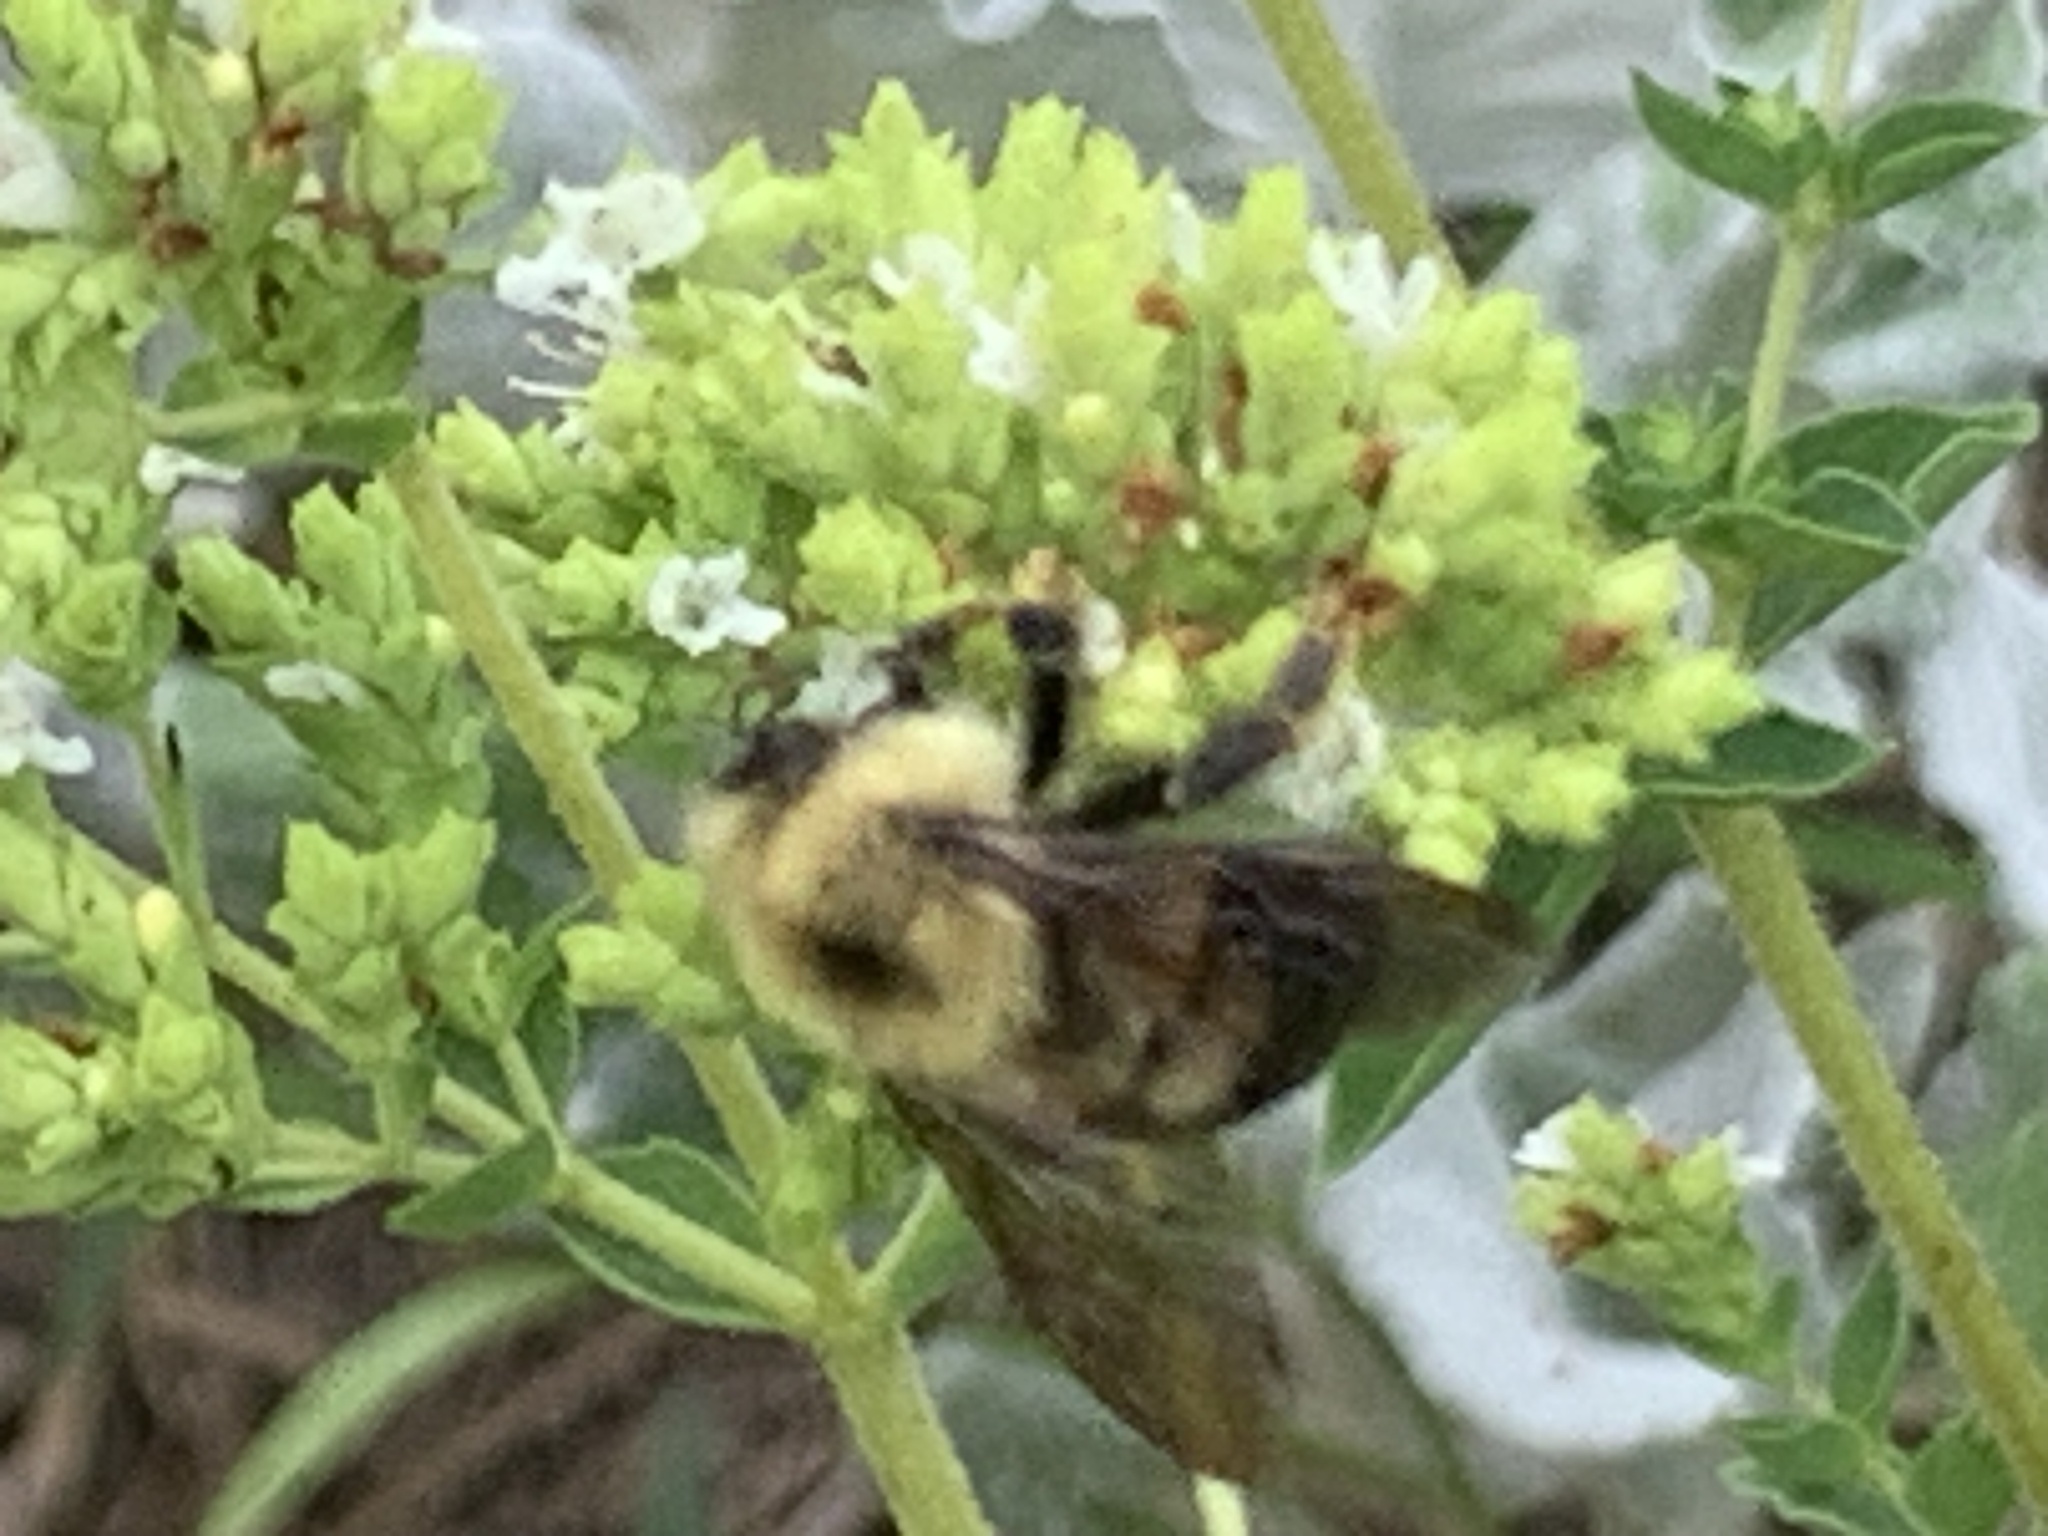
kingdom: Animalia
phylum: Arthropoda
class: Insecta
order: Hymenoptera
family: Apidae
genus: Bombus
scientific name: Bombus bimaculatus
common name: Two-spotted bumble bee
